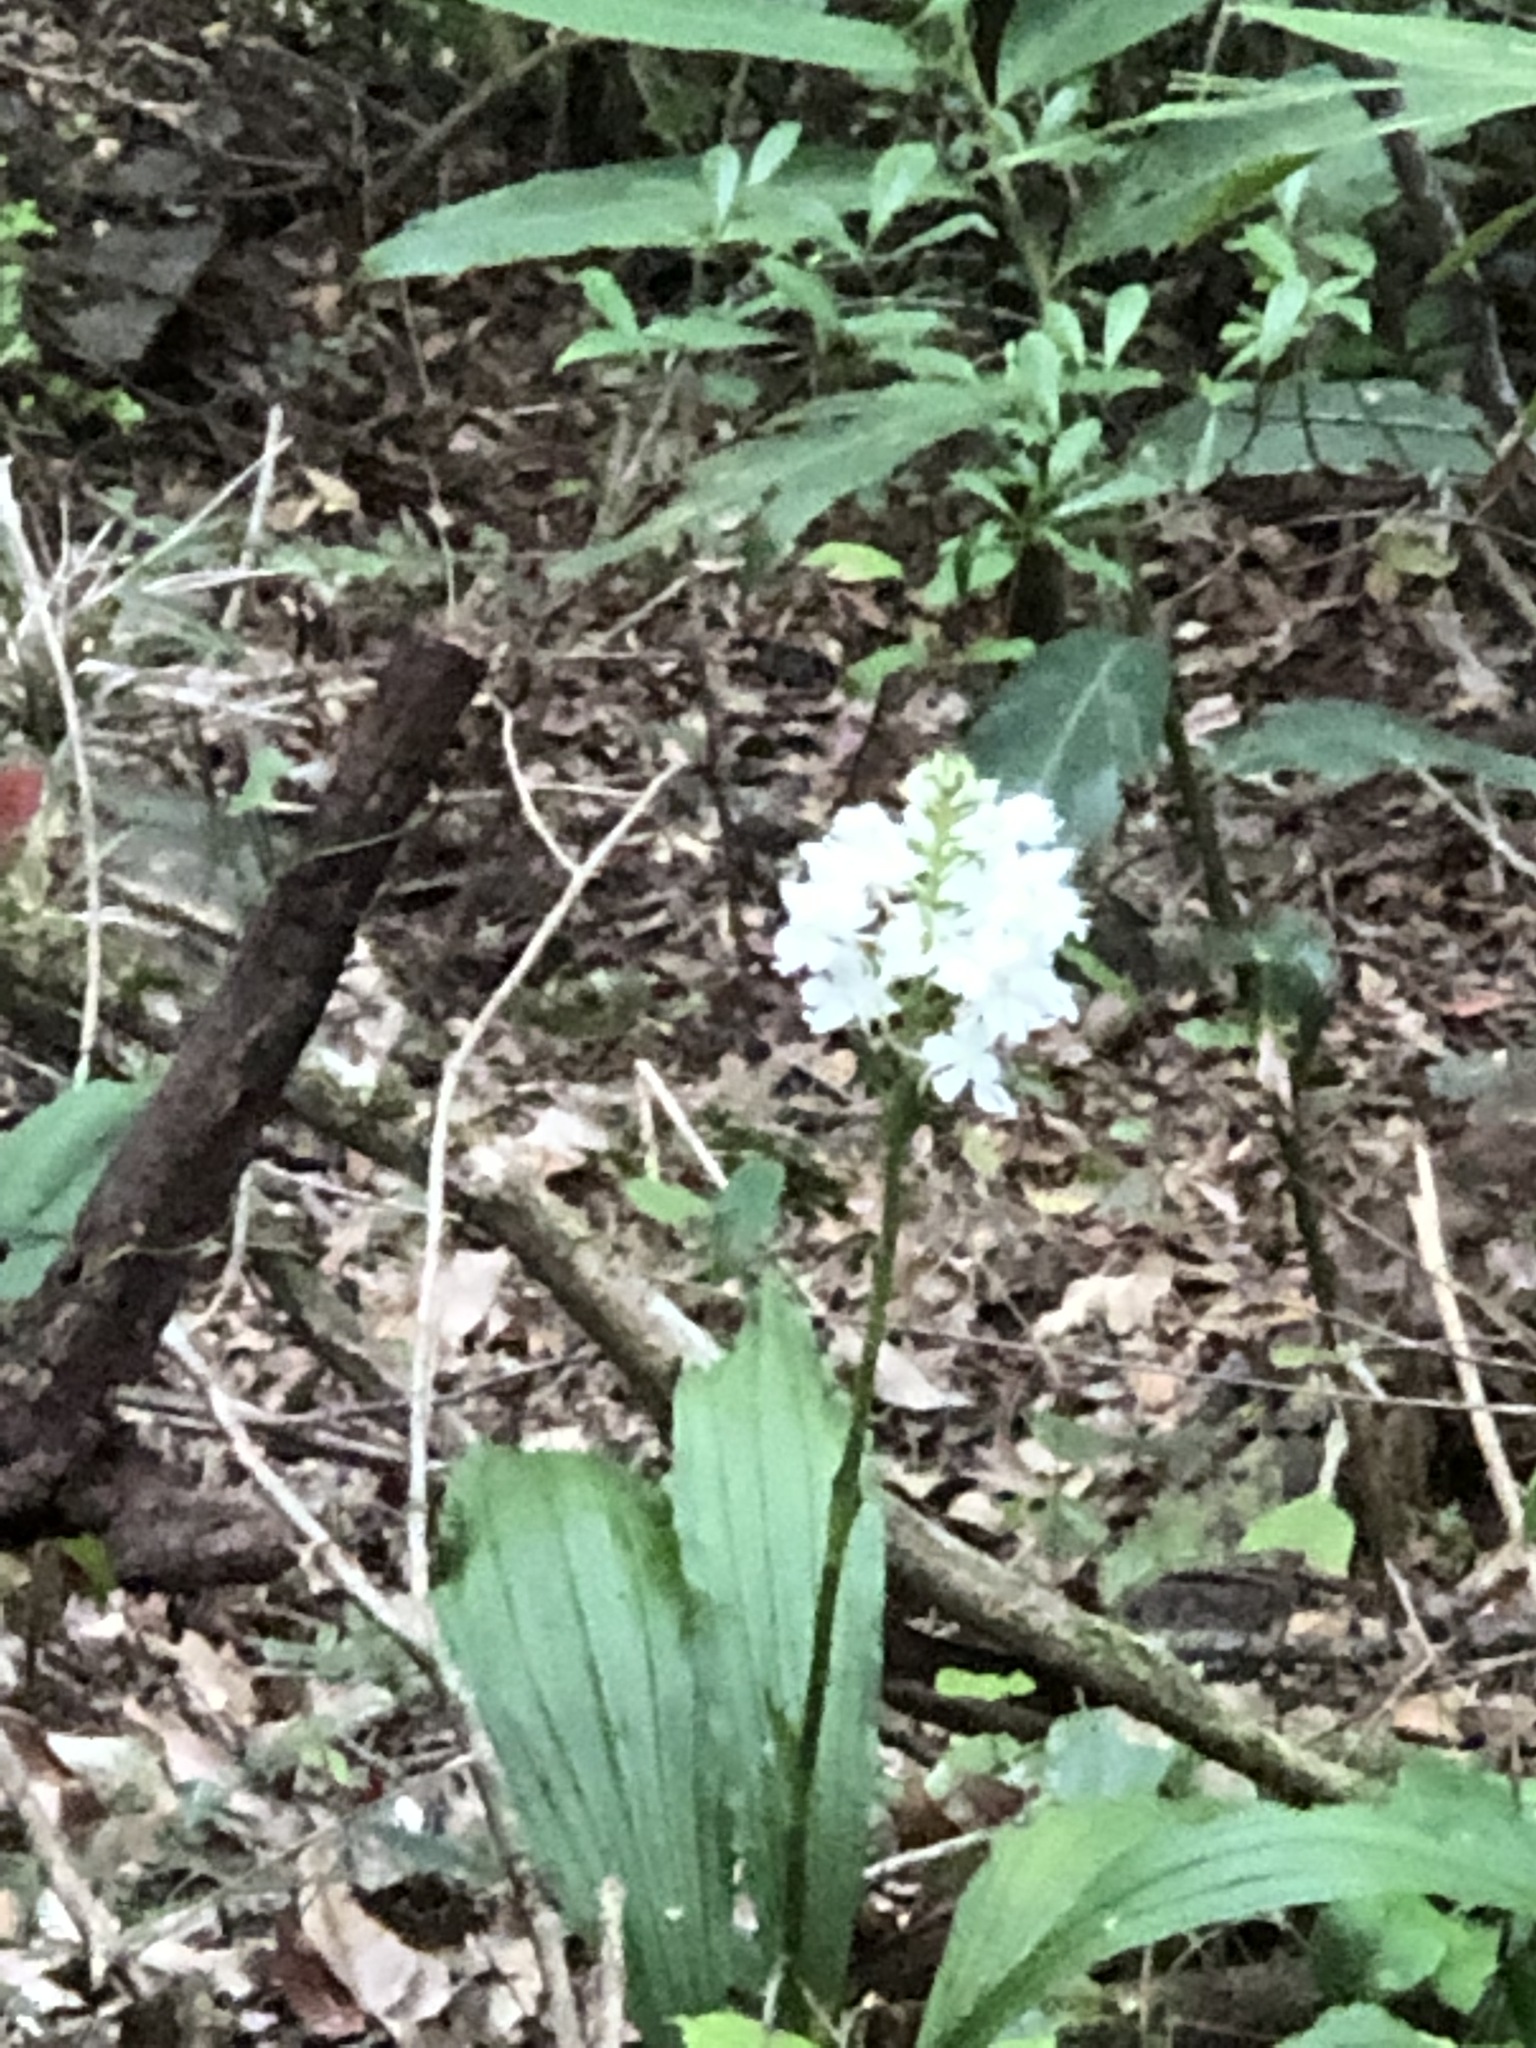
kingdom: Plantae
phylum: Tracheophyta
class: Liliopsida
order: Asparagales
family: Orchidaceae
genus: Calanthe
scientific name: Calanthe triplicata
